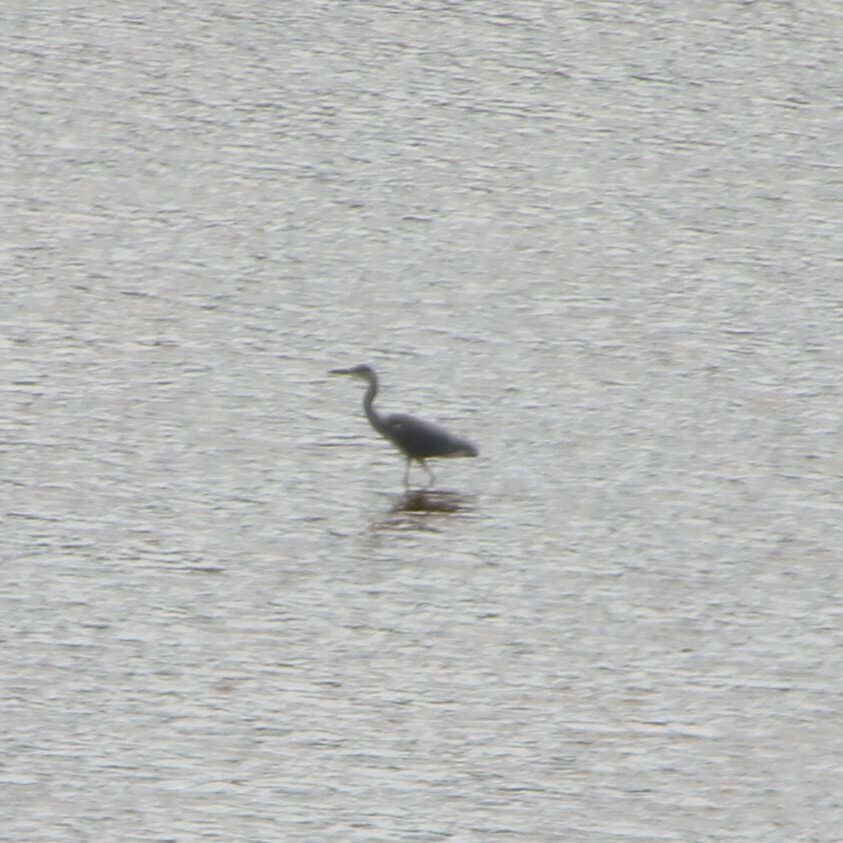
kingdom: Animalia
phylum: Chordata
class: Aves
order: Pelecaniformes
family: Ardeidae
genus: Ardea
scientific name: Ardea cinerea
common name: Grey heron
